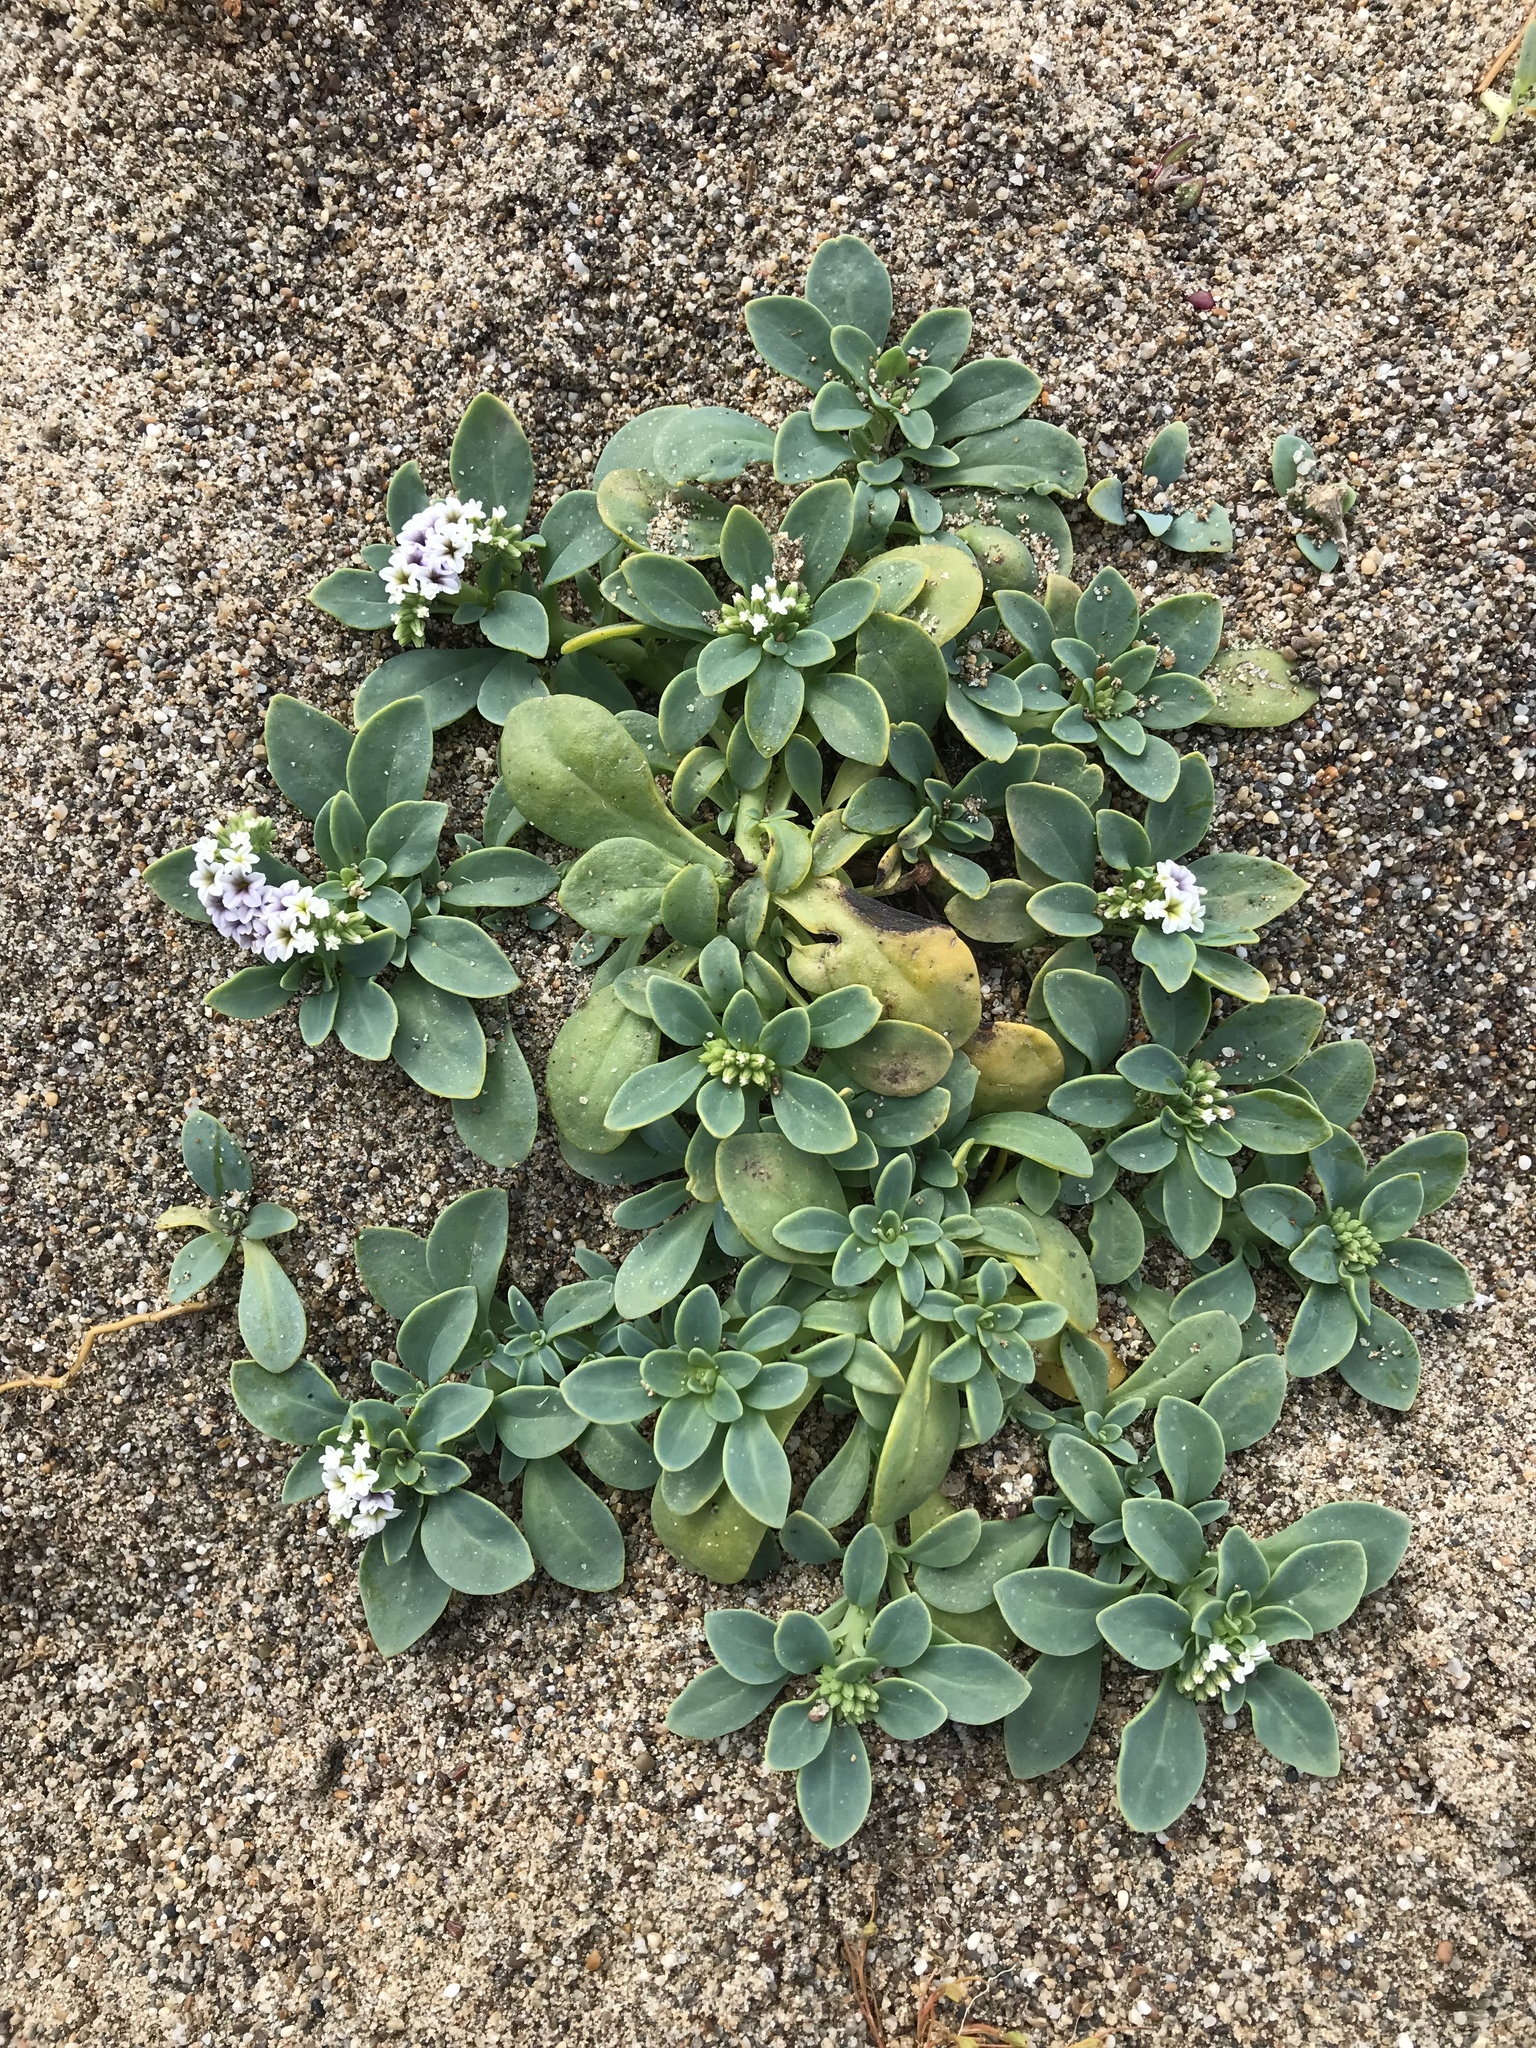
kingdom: Plantae
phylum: Tracheophyta
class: Magnoliopsida
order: Boraginales
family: Heliotropiaceae
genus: Heliotropium
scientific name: Heliotropium curassavicum
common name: Seaside heliotrope
